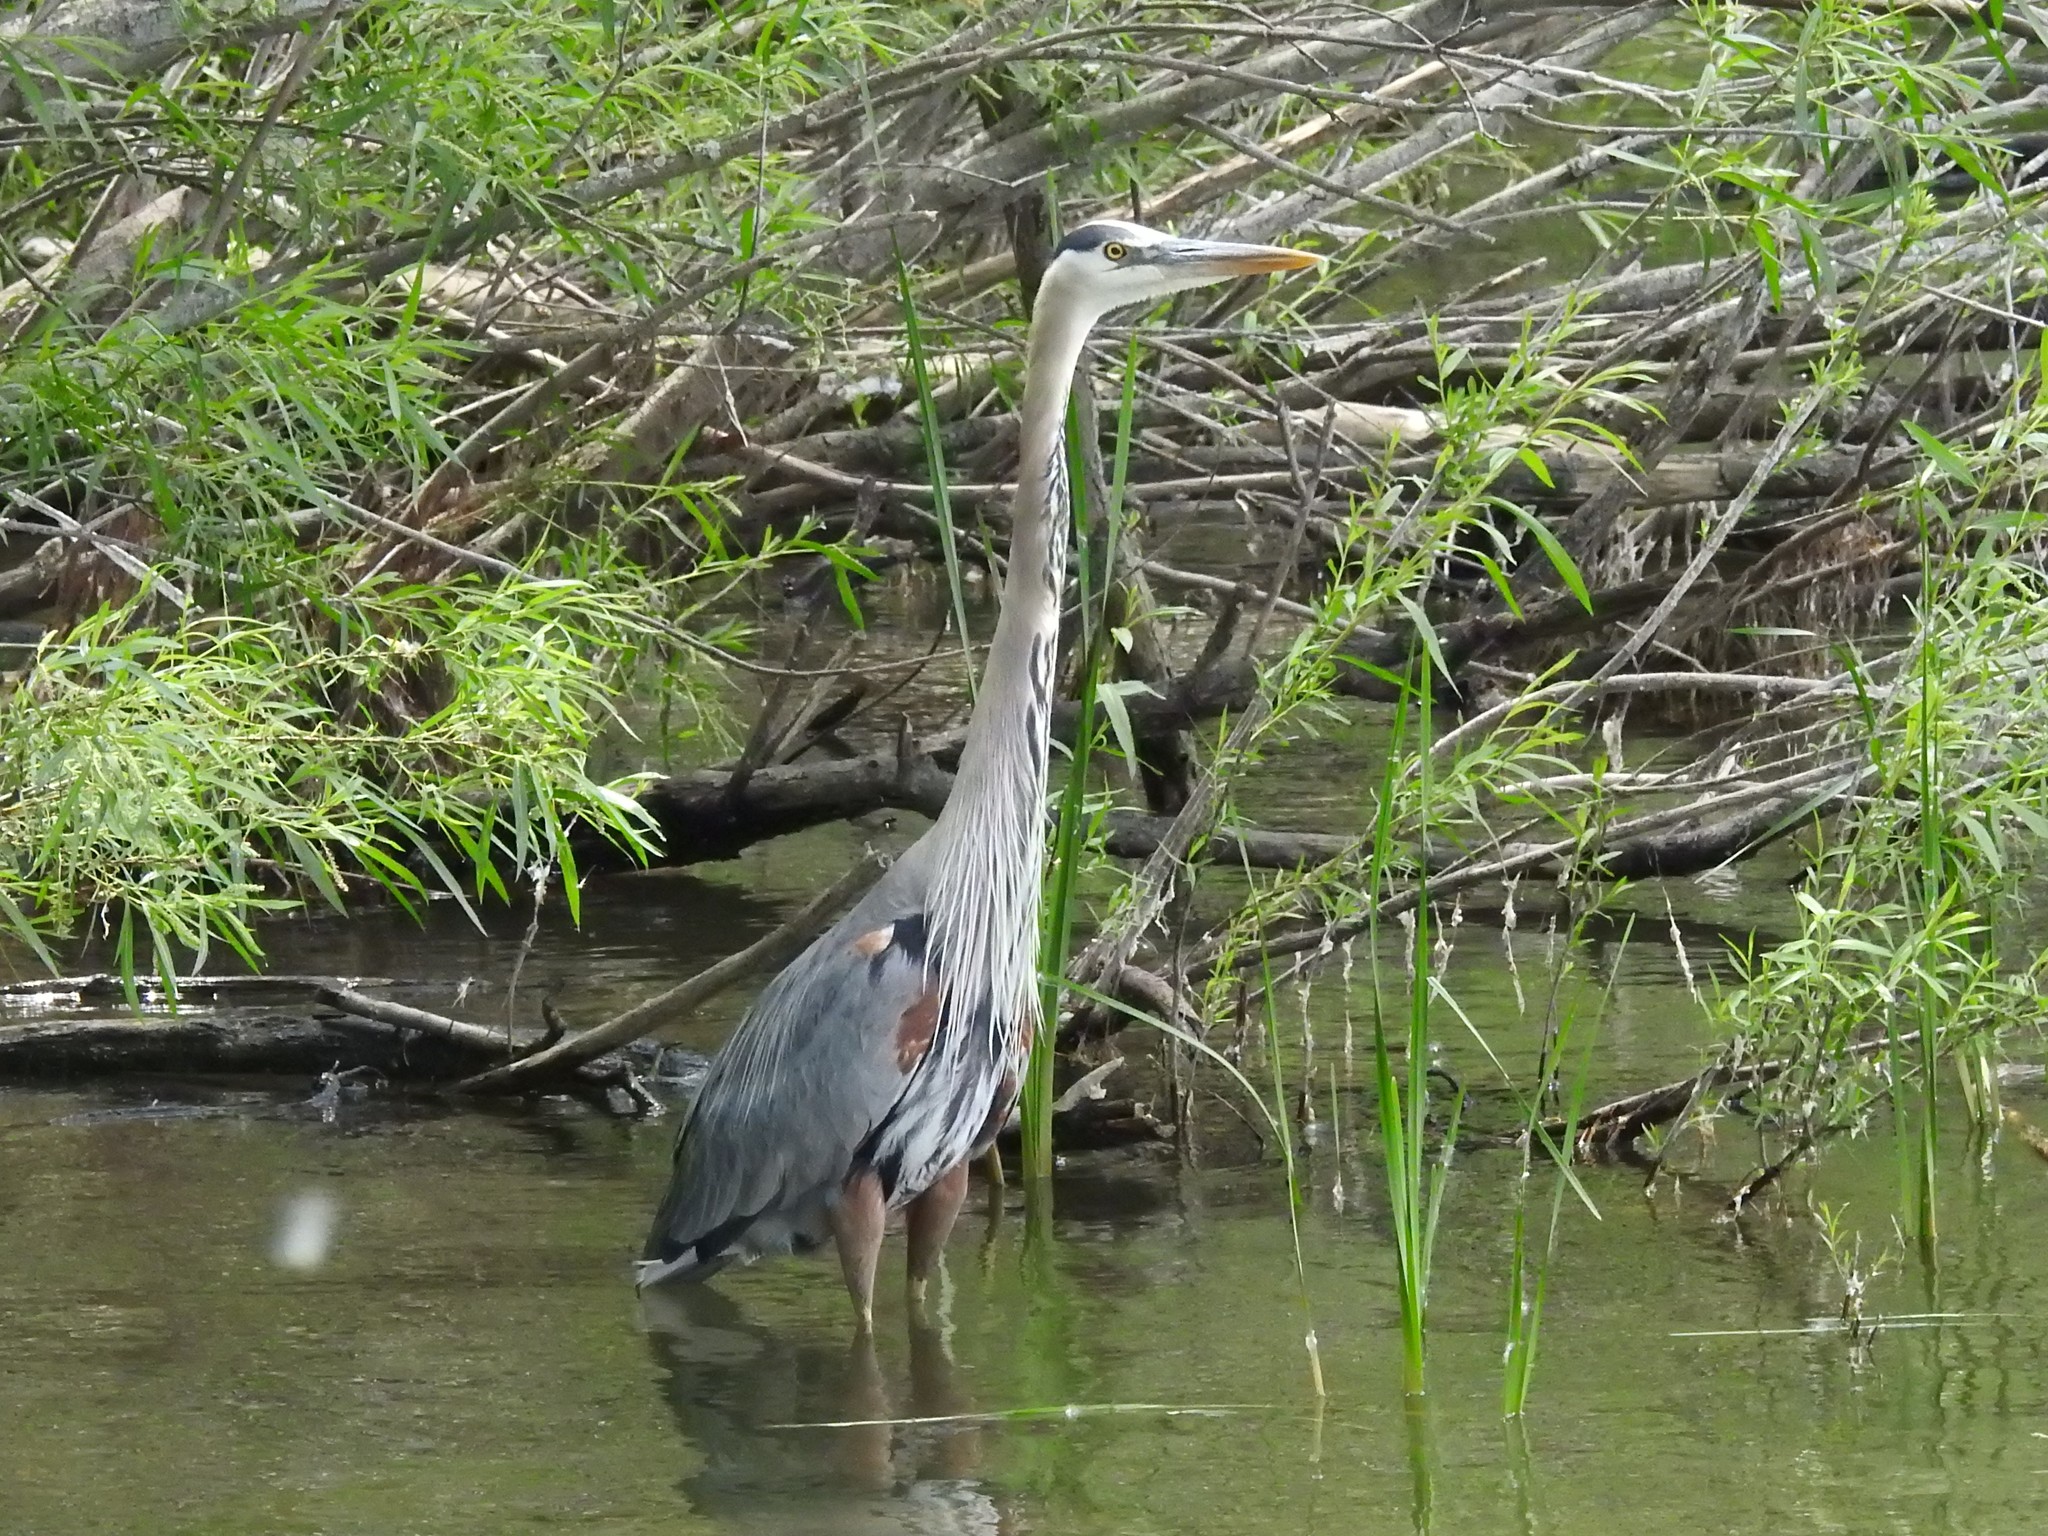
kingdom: Animalia
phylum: Chordata
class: Aves
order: Pelecaniformes
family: Ardeidae
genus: Ardea
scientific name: Ardea herodias
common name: Great blue heron
